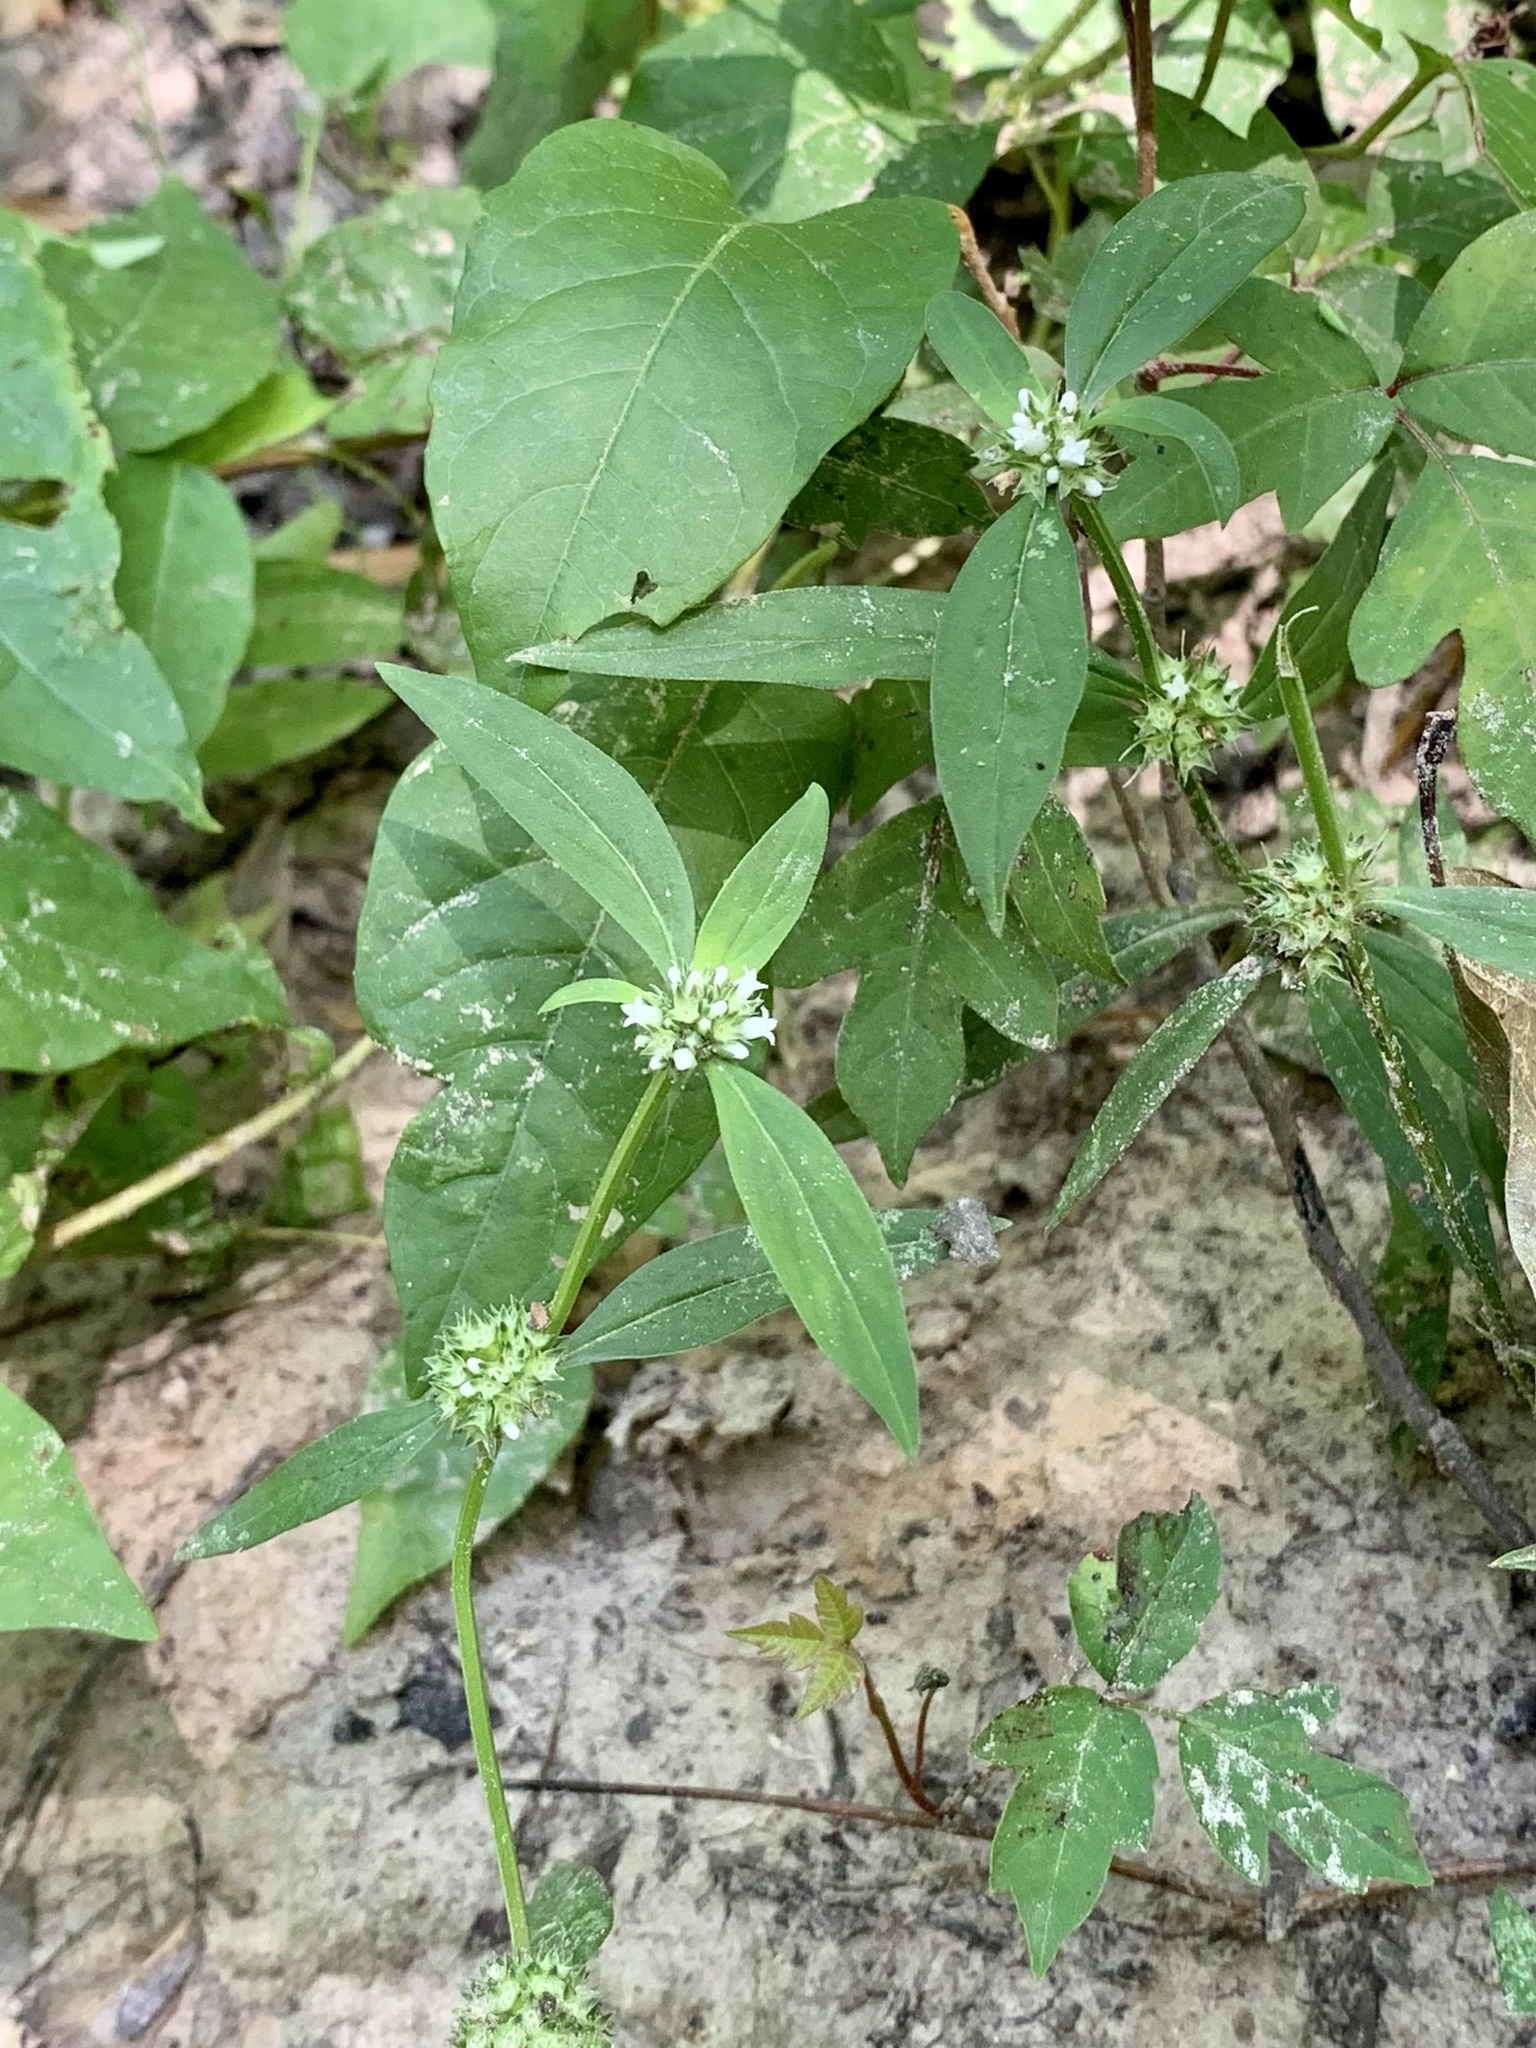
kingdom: Plantae
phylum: Tracheophyta
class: Magnoliopsida
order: Gentianales
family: Rubiaceae
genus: Spermacoce
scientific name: Spermacoce glabra
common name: Smooth buttonweed
